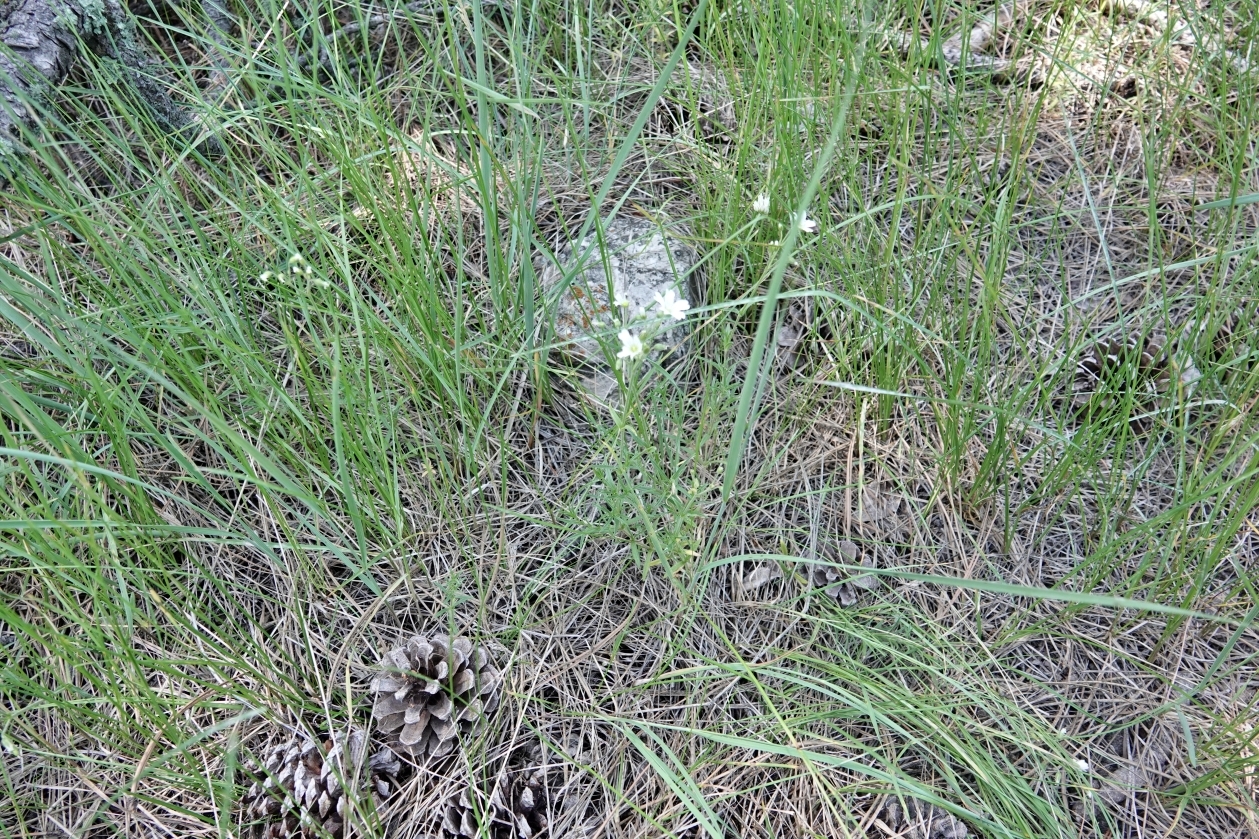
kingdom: Plantae
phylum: Tracheophyta
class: Magnoliopsida
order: Caryophyllales
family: Caryophyllaceae
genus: Cerastium
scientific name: Cerastium arvense
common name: Field mouse-ear
